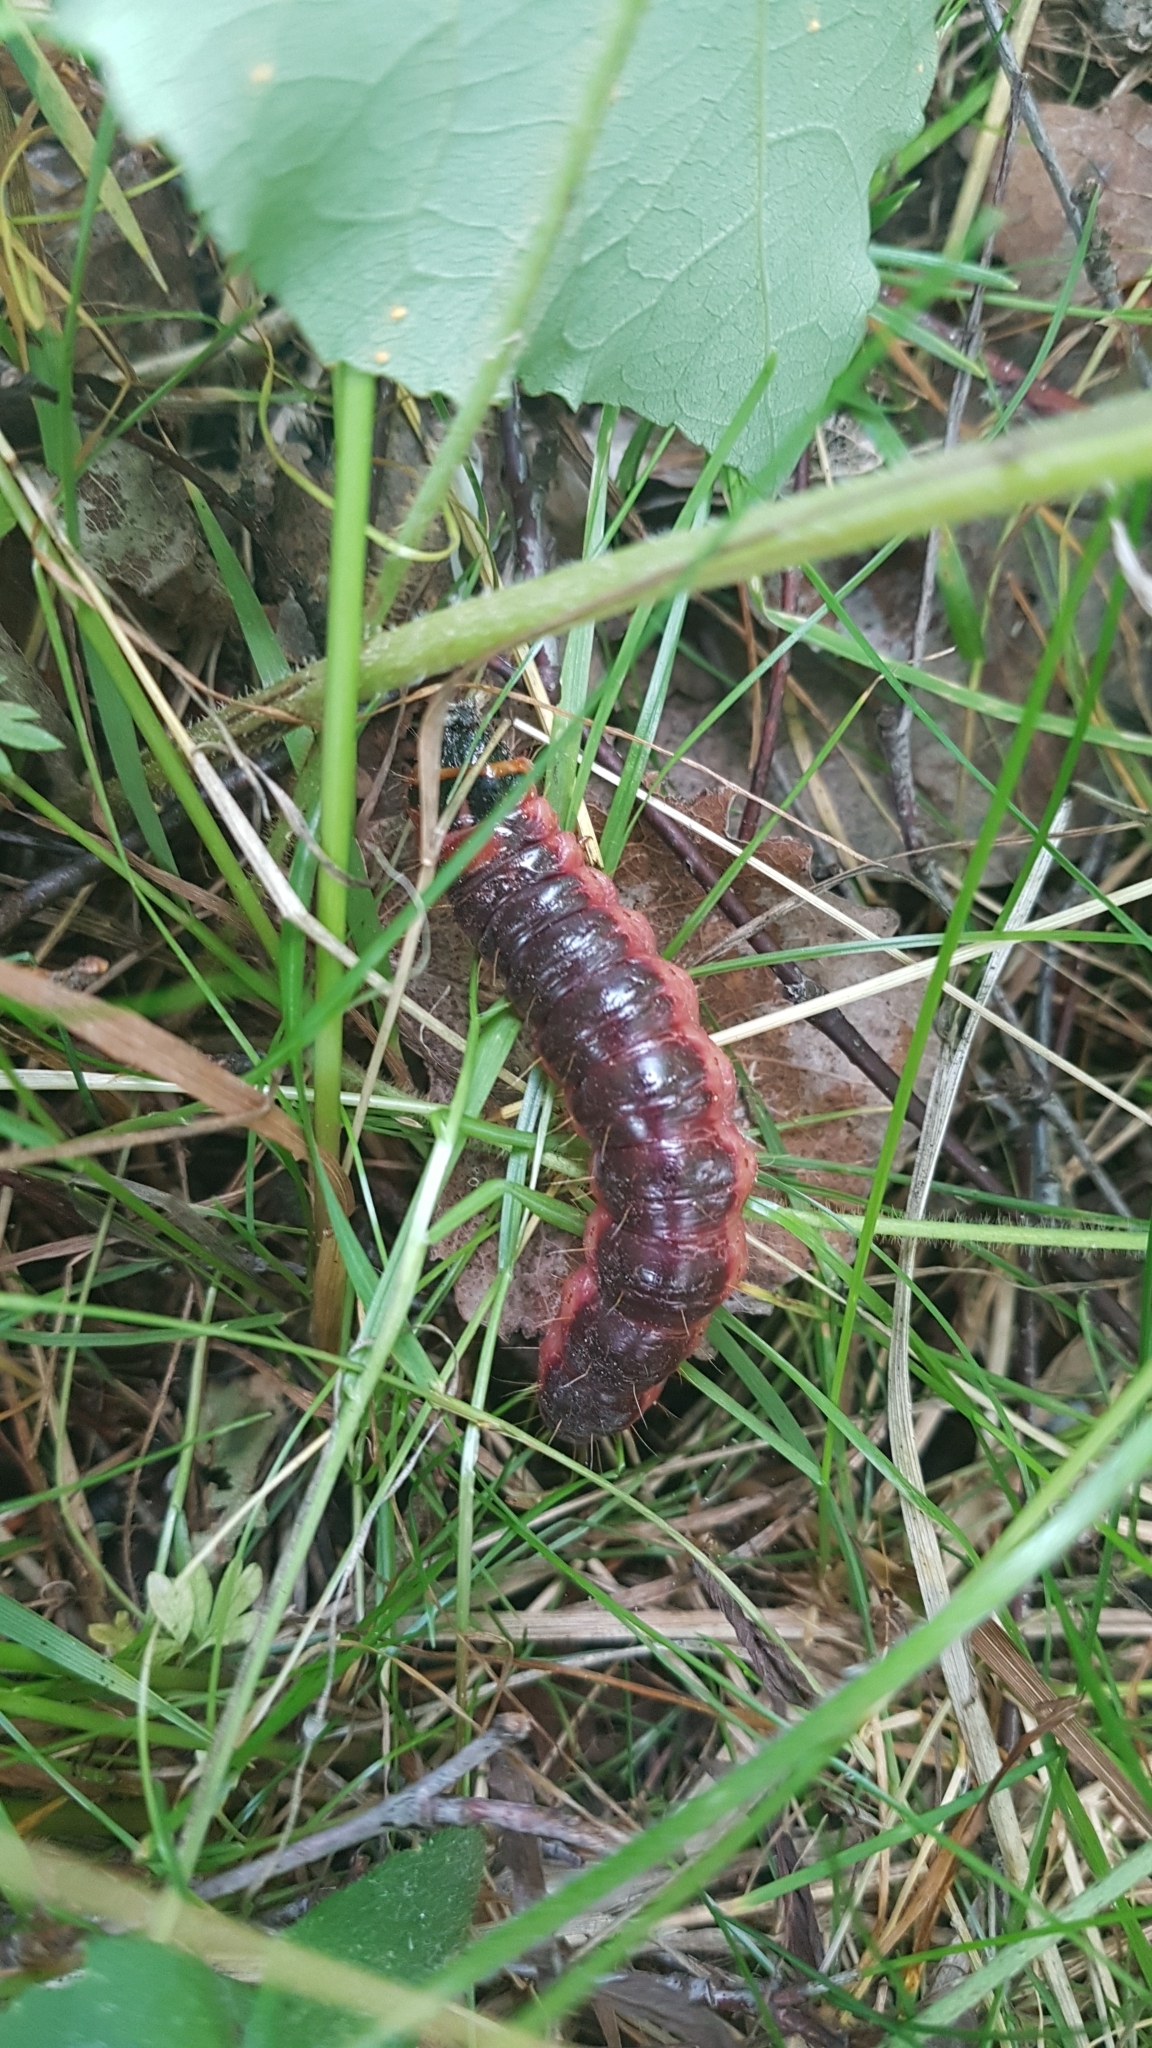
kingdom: Animalia
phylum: Arthropoda
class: Insecta
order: Lepidoptera
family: Cossidae
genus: Cossus
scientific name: Cossus cossus
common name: Goat moth
